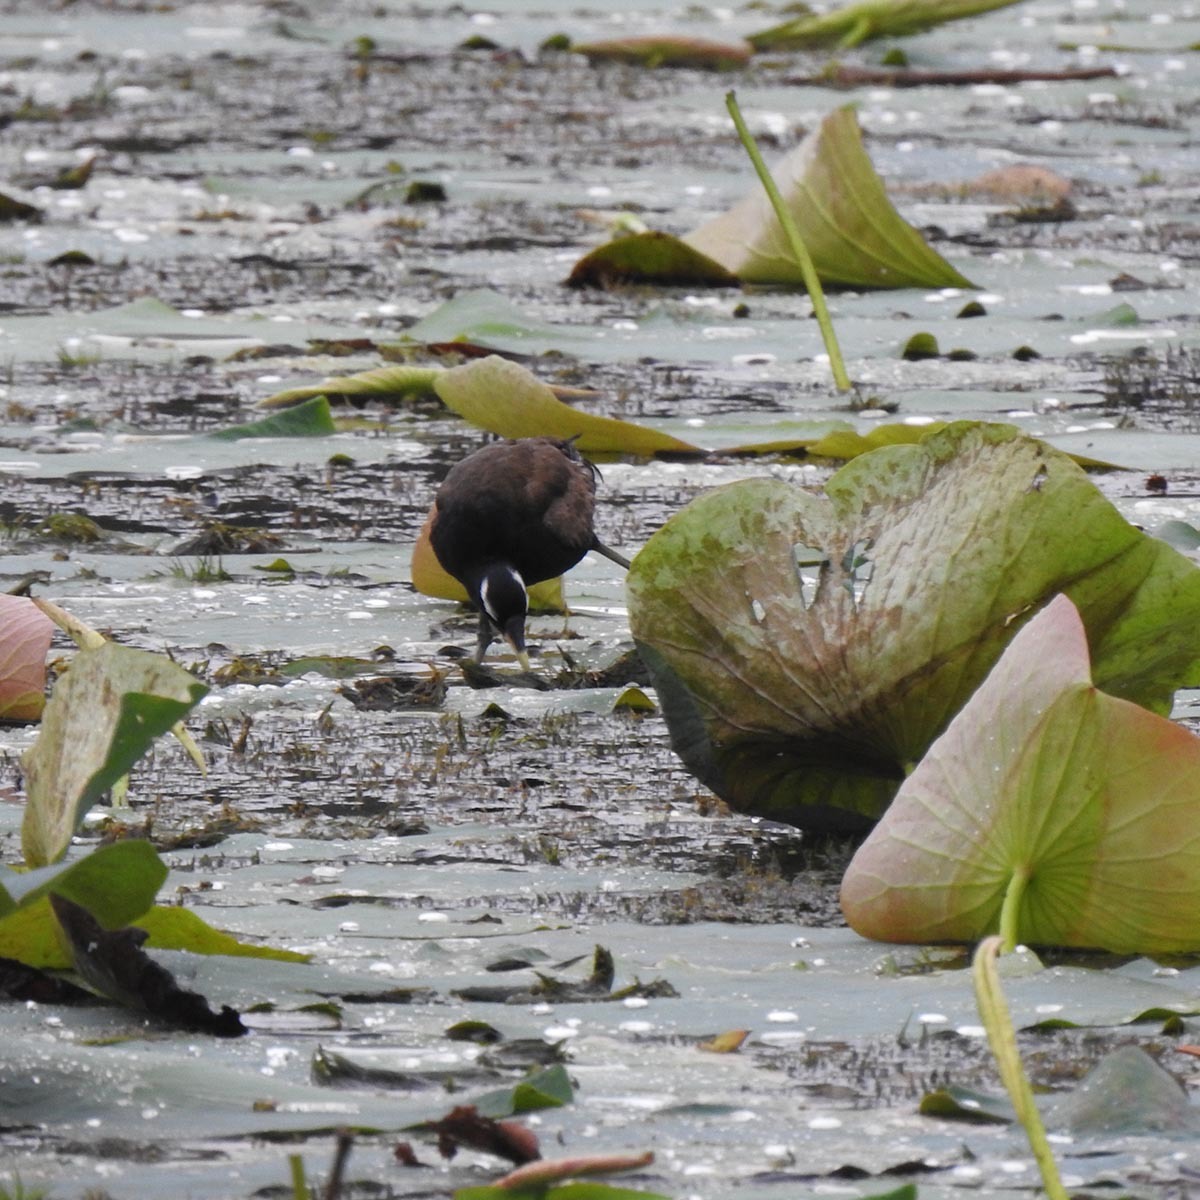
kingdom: Animalia
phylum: Chordata
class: Aves
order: Charadriiformes
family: Jacanidae
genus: Metopidius
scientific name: Metopidius indicus
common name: Bronze-winged jacana
